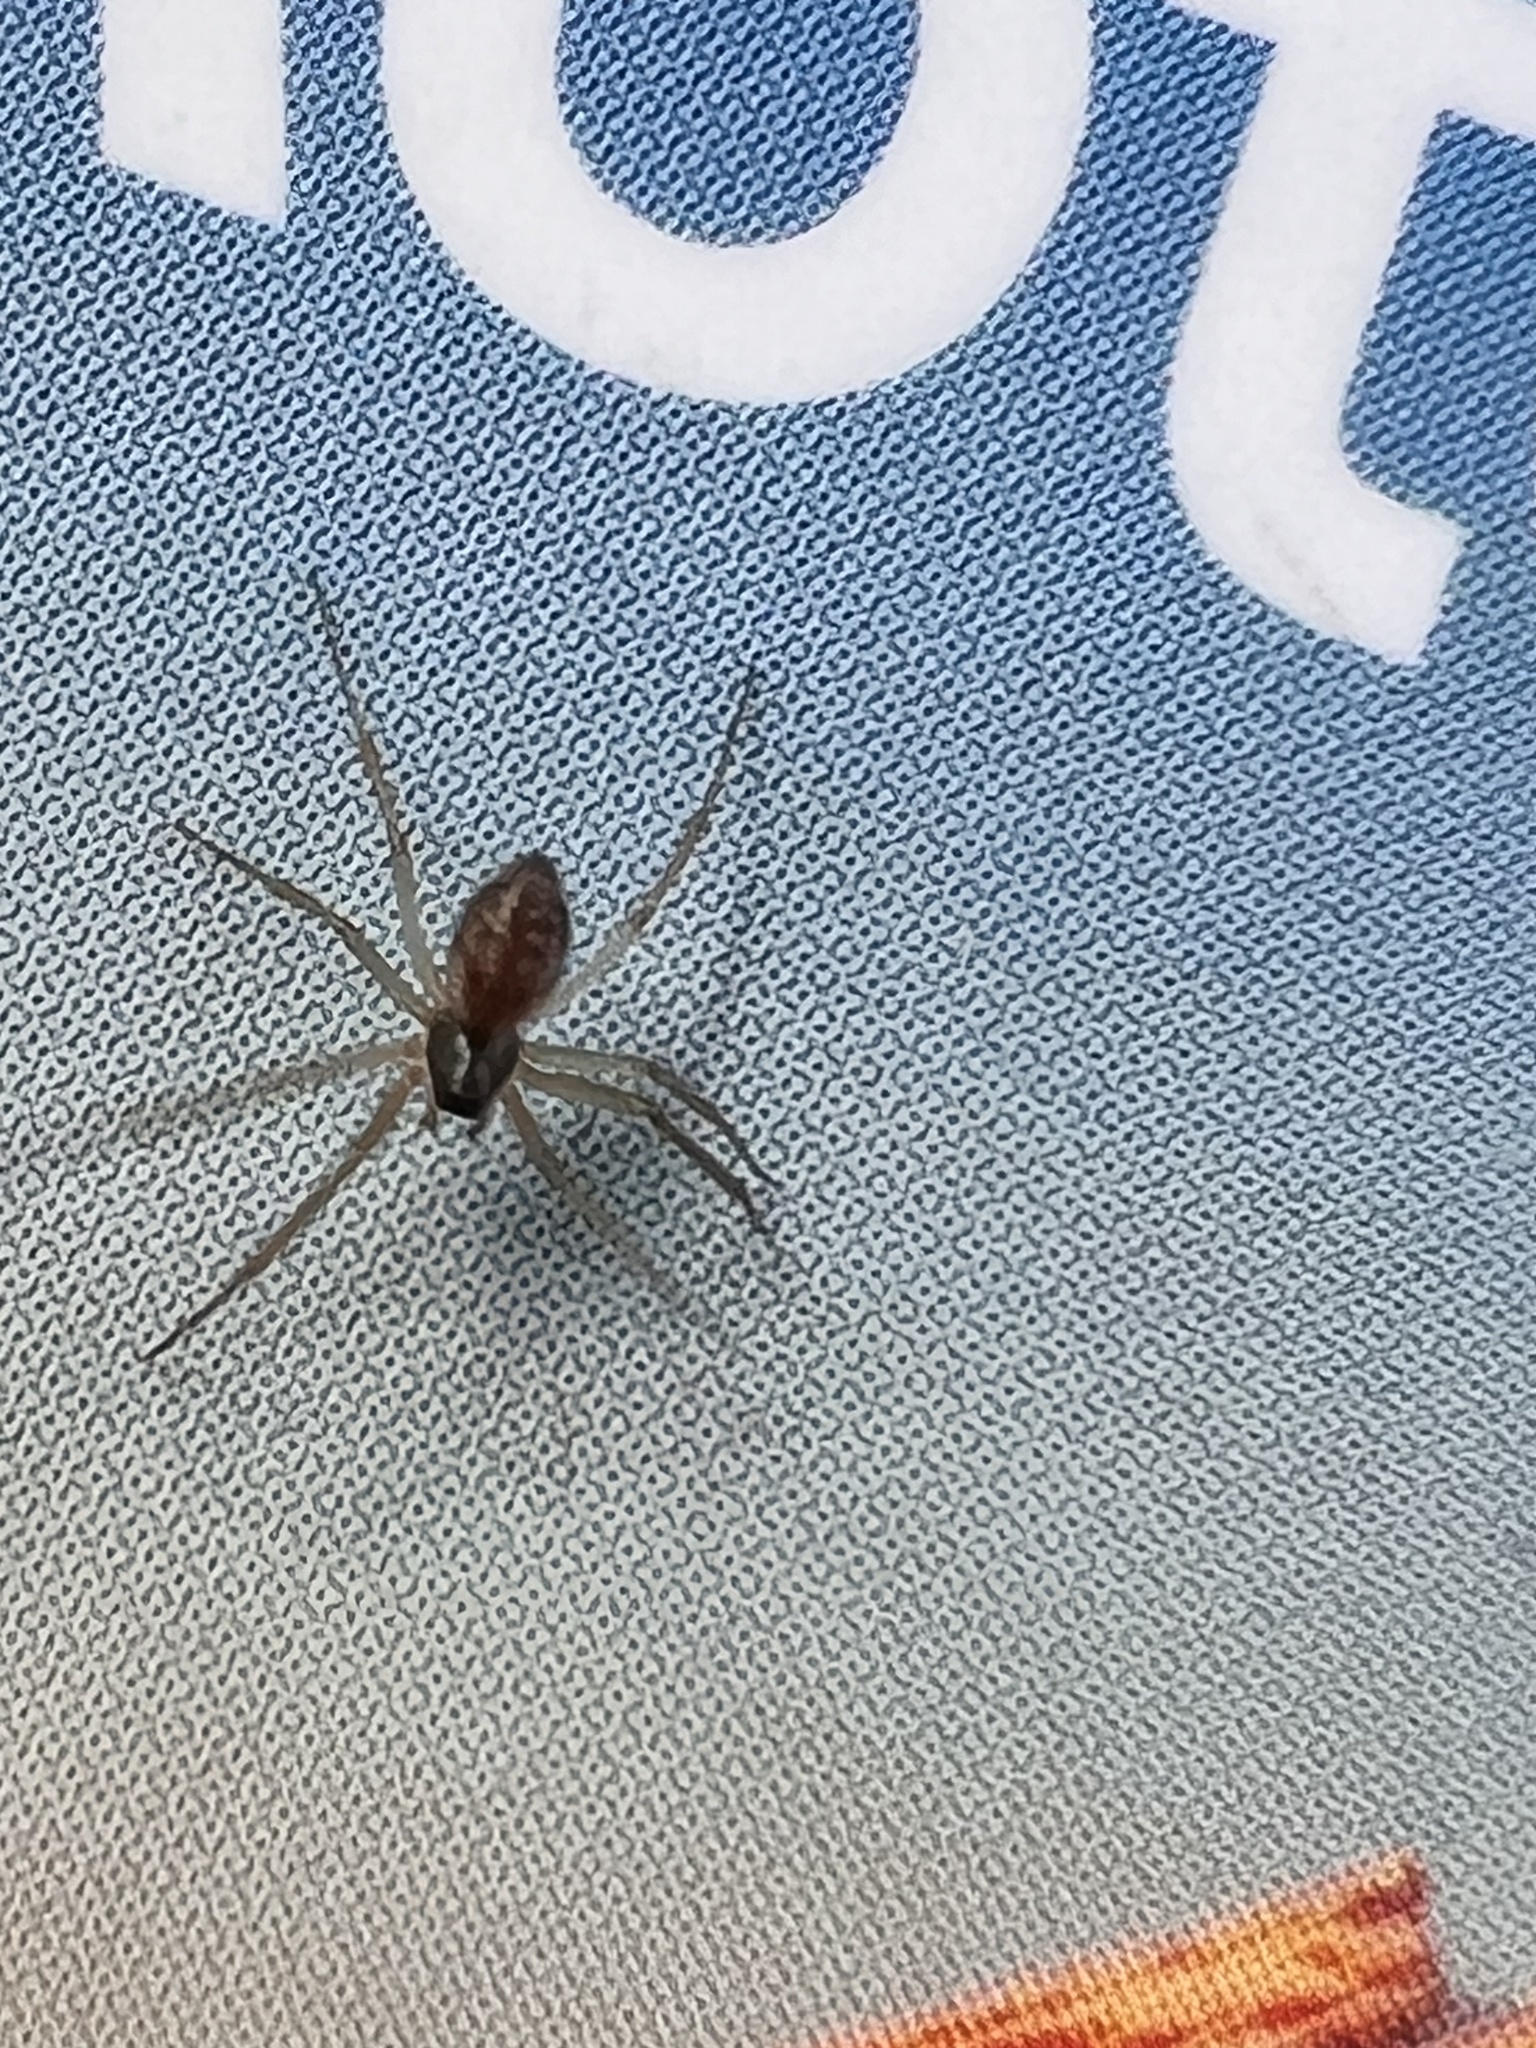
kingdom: Animalia
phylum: Arthropoda
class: Arachnida
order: Araneae
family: Linyphiidae
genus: Tenuiphantes
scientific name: Tenuiphantes tenuis
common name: Dwarf weaver
